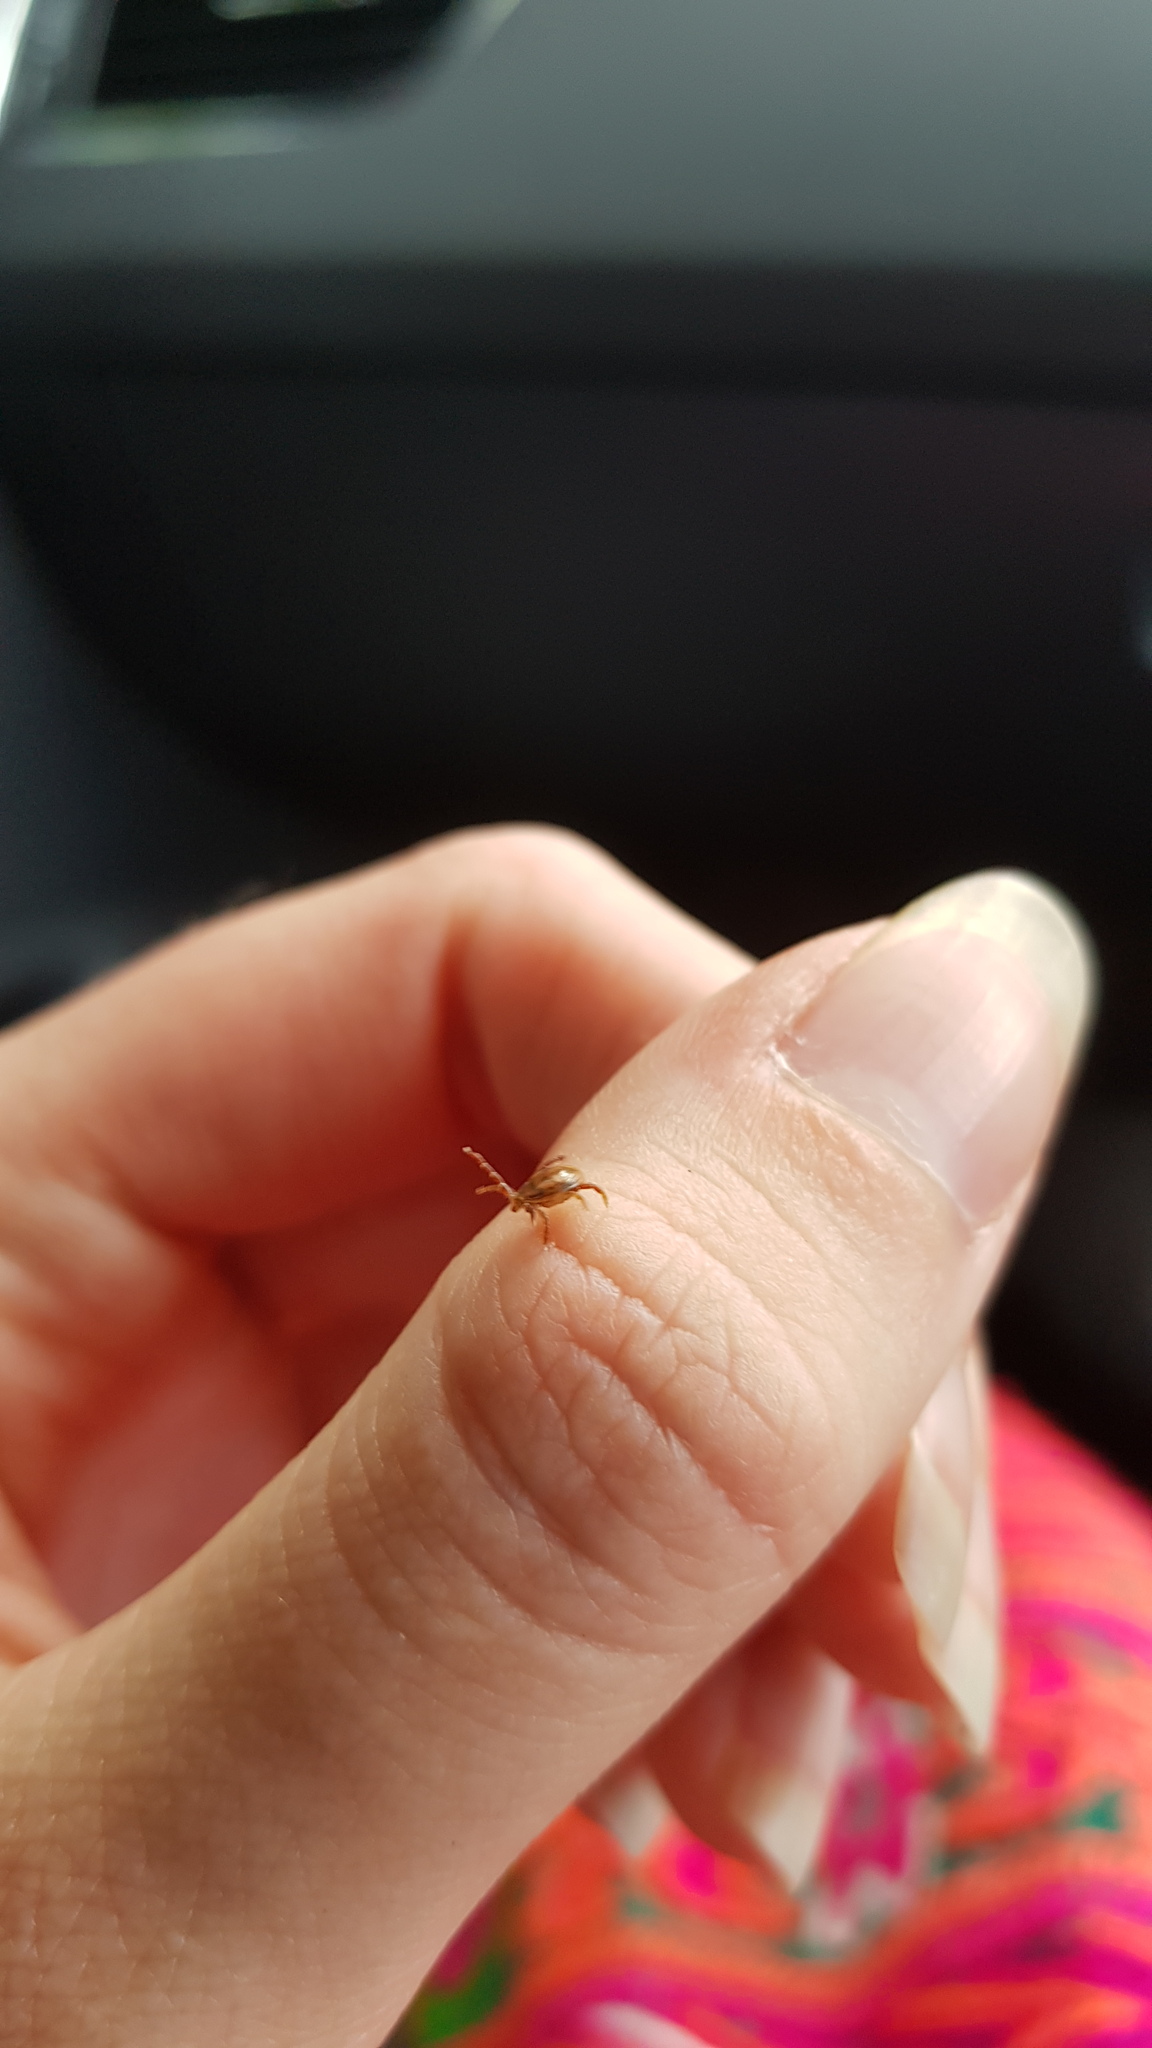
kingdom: Animalia
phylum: Arthropoda
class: Arachnida
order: Ixodida
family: Ixodidae
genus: Ixodes
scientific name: Ixodes holocyclus
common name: Australian paralysis tick
